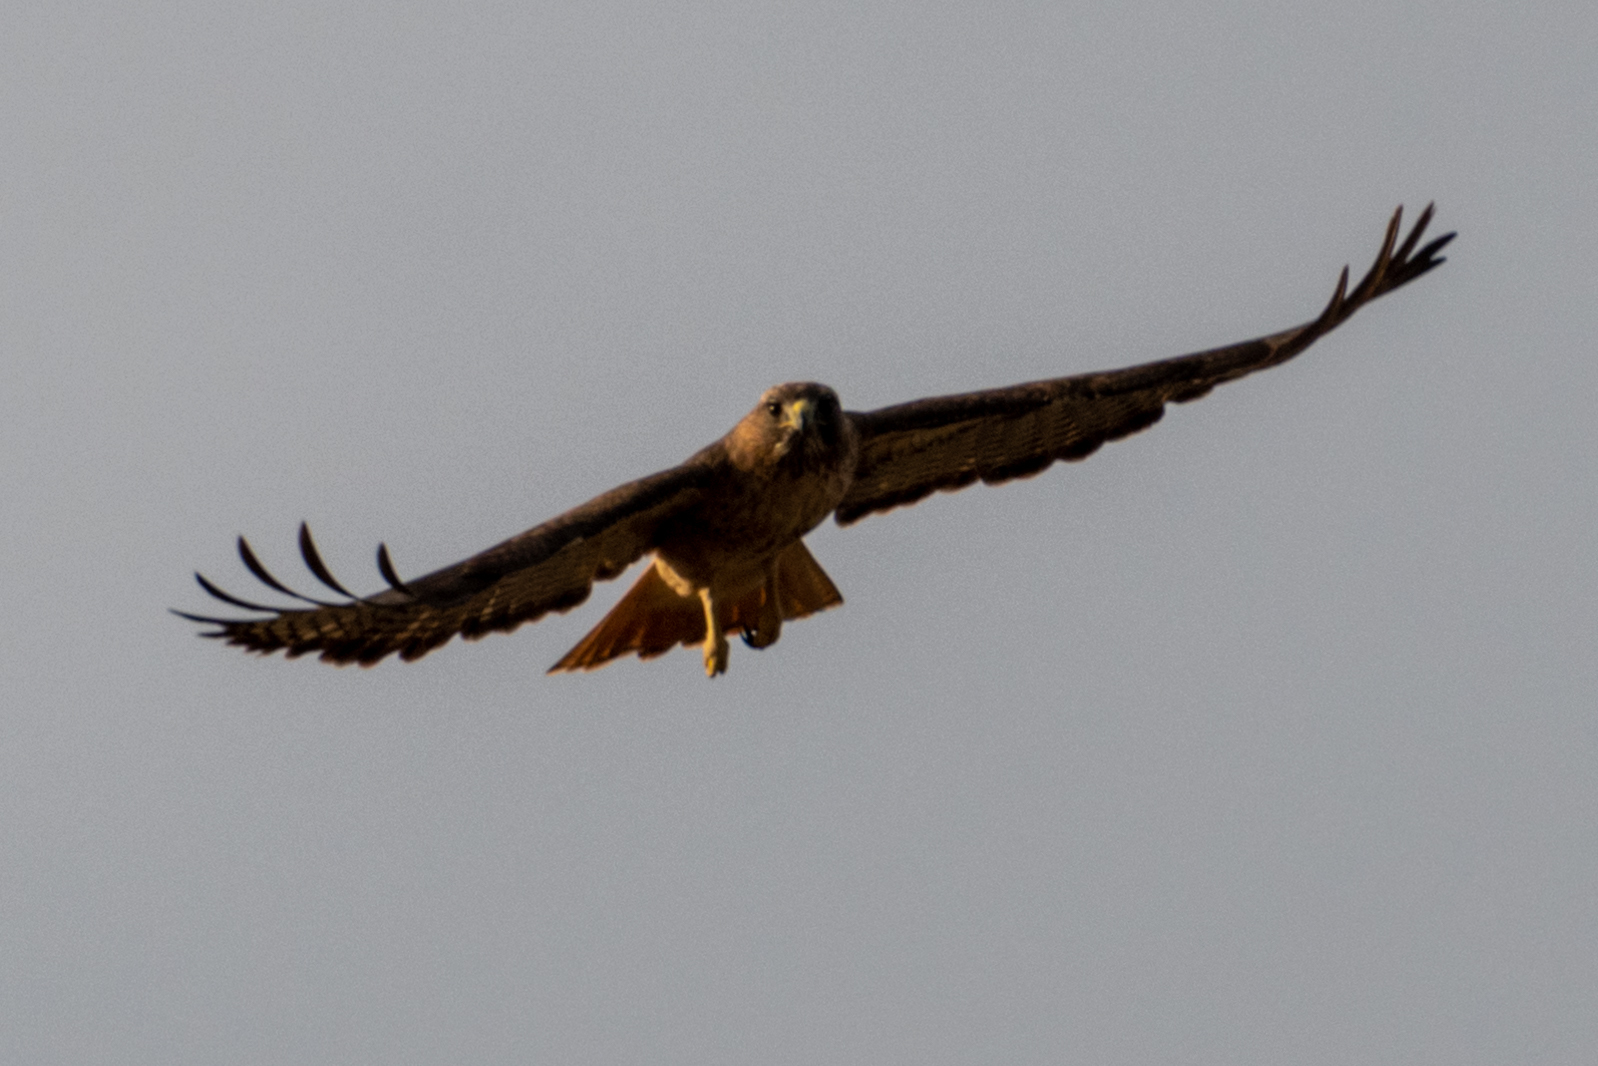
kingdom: Animalia
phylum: Chordata
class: Aves
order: Accipitriformes
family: Accipitridae
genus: Buteo
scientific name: Buteo jamaicensis
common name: Red-tailed hawk
